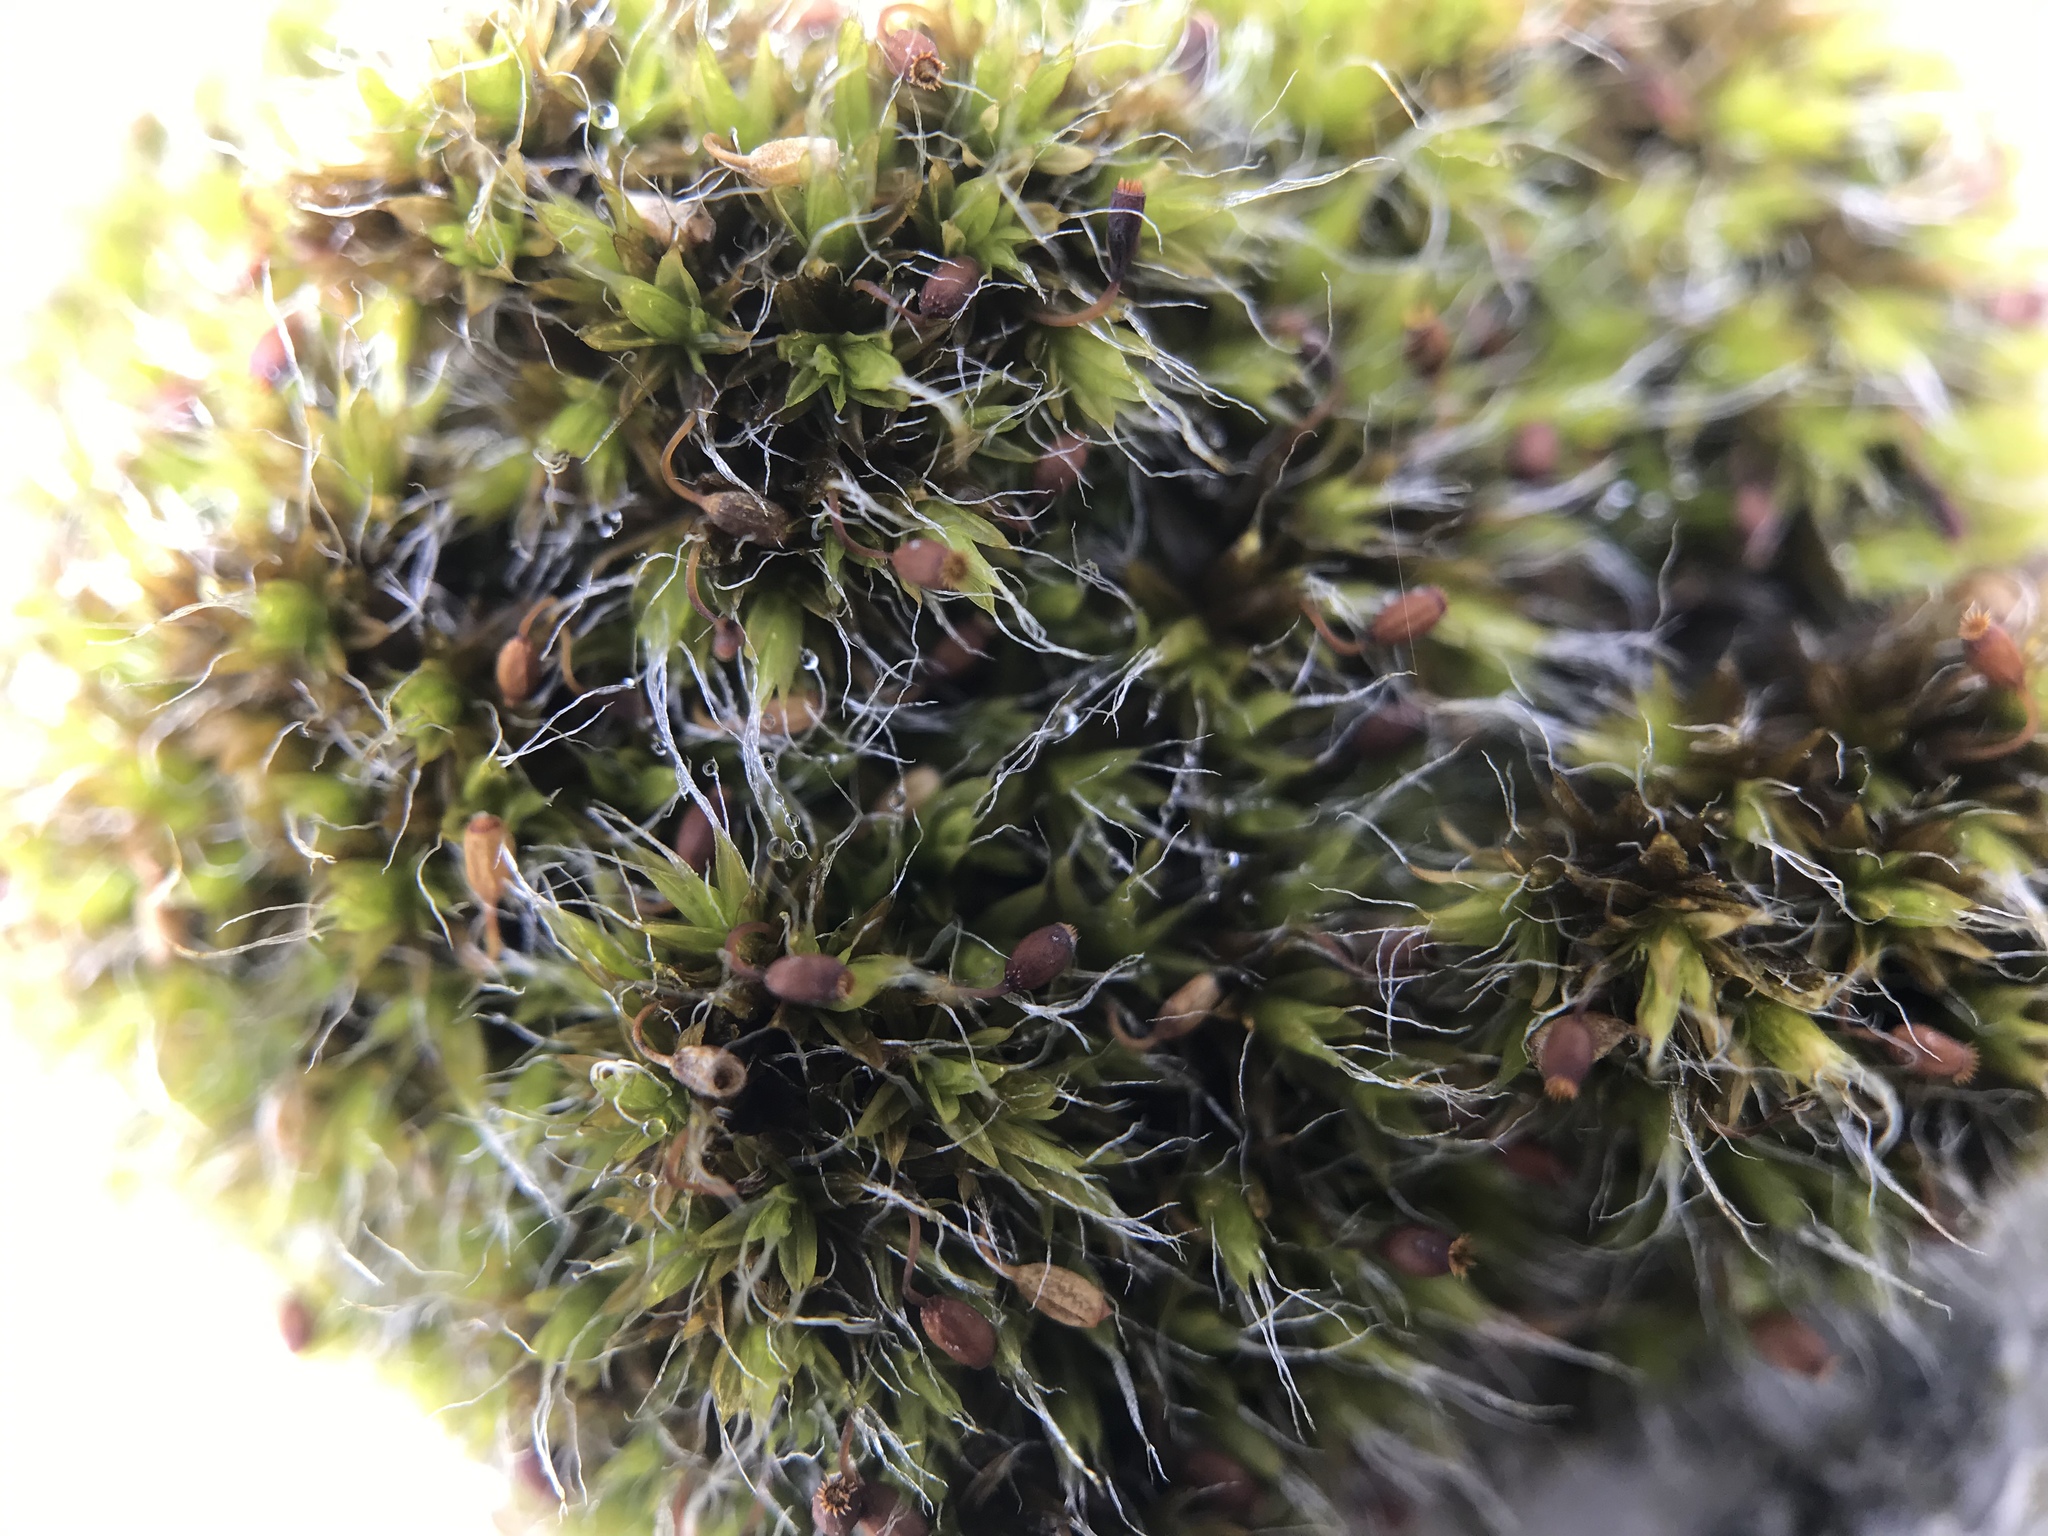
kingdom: Plantae
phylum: Bryophyta
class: Bryopsida
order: Grimmiales
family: Grimmiaceae
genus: Grimmia
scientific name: Grimmia pulvinata
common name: Grey-cushioned grimmia
